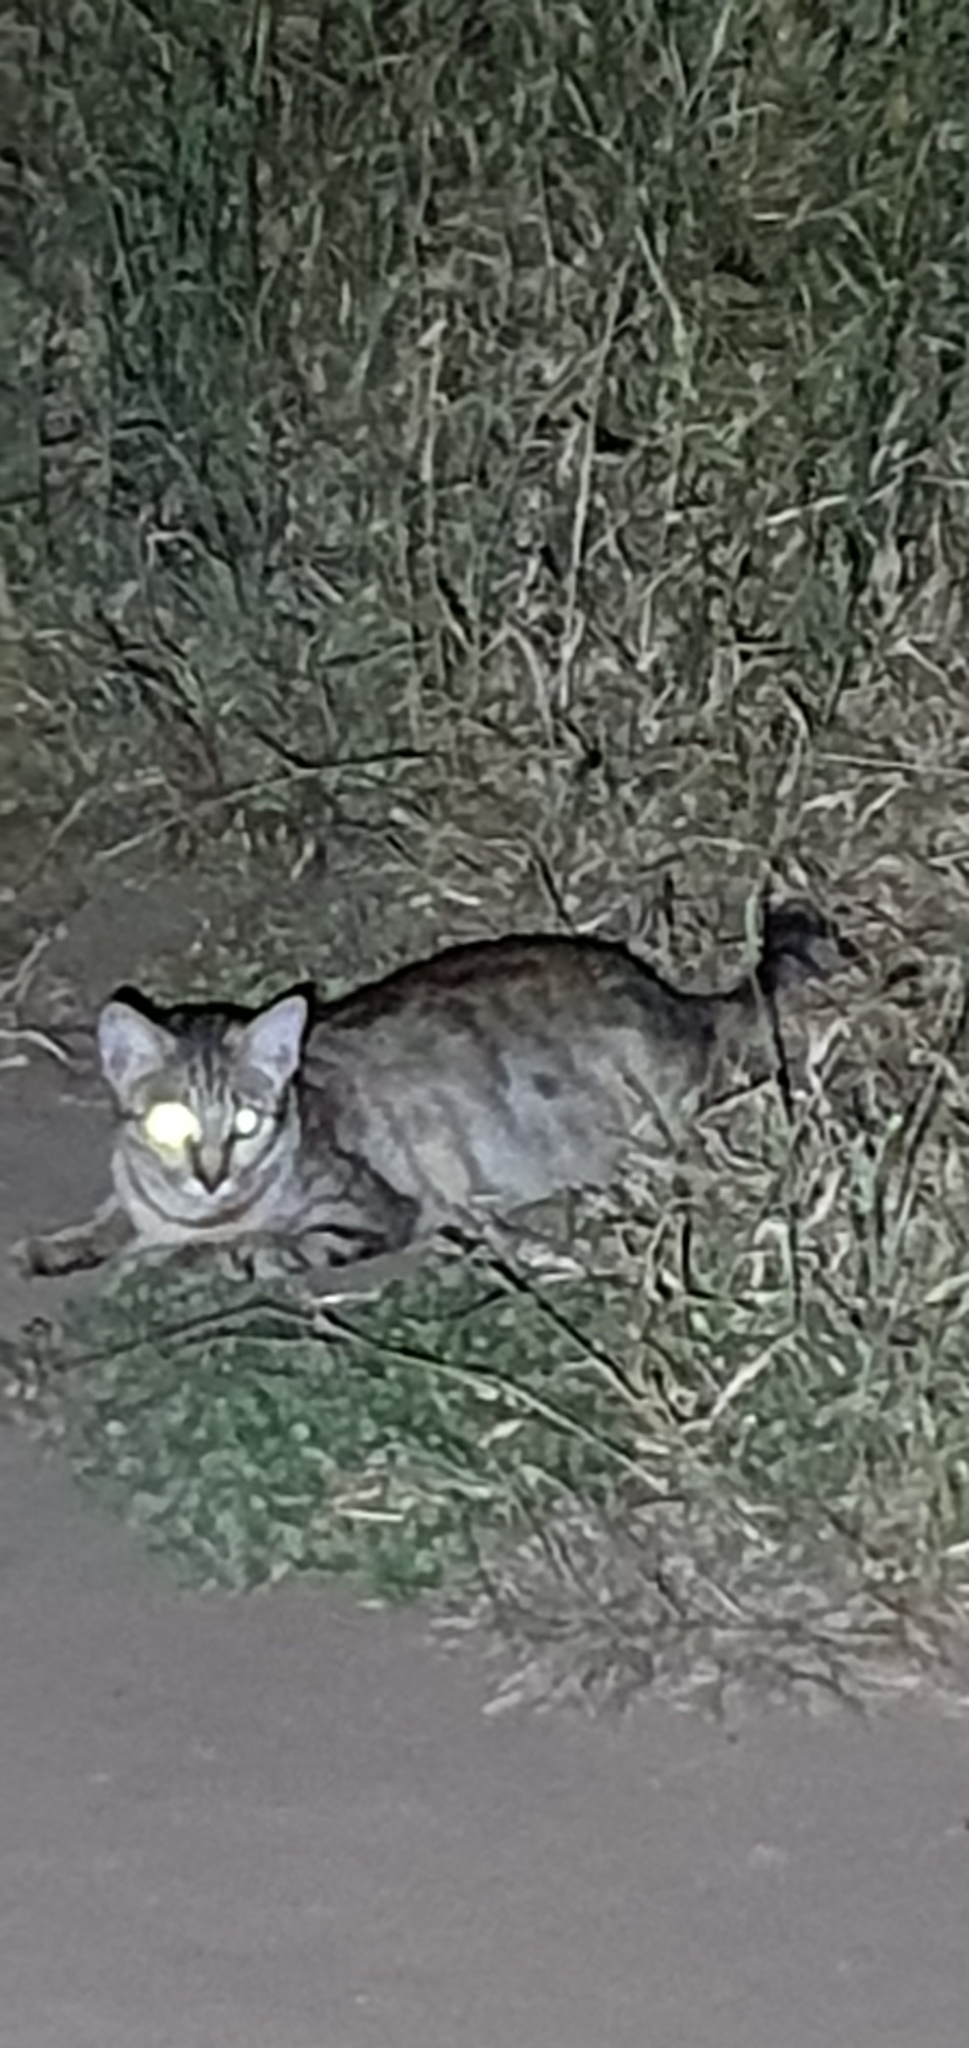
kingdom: Animalia
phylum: Chordata
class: Mammalia
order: Carnivora
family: Felidae
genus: Felis
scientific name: Felis catus
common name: Domestic cat
